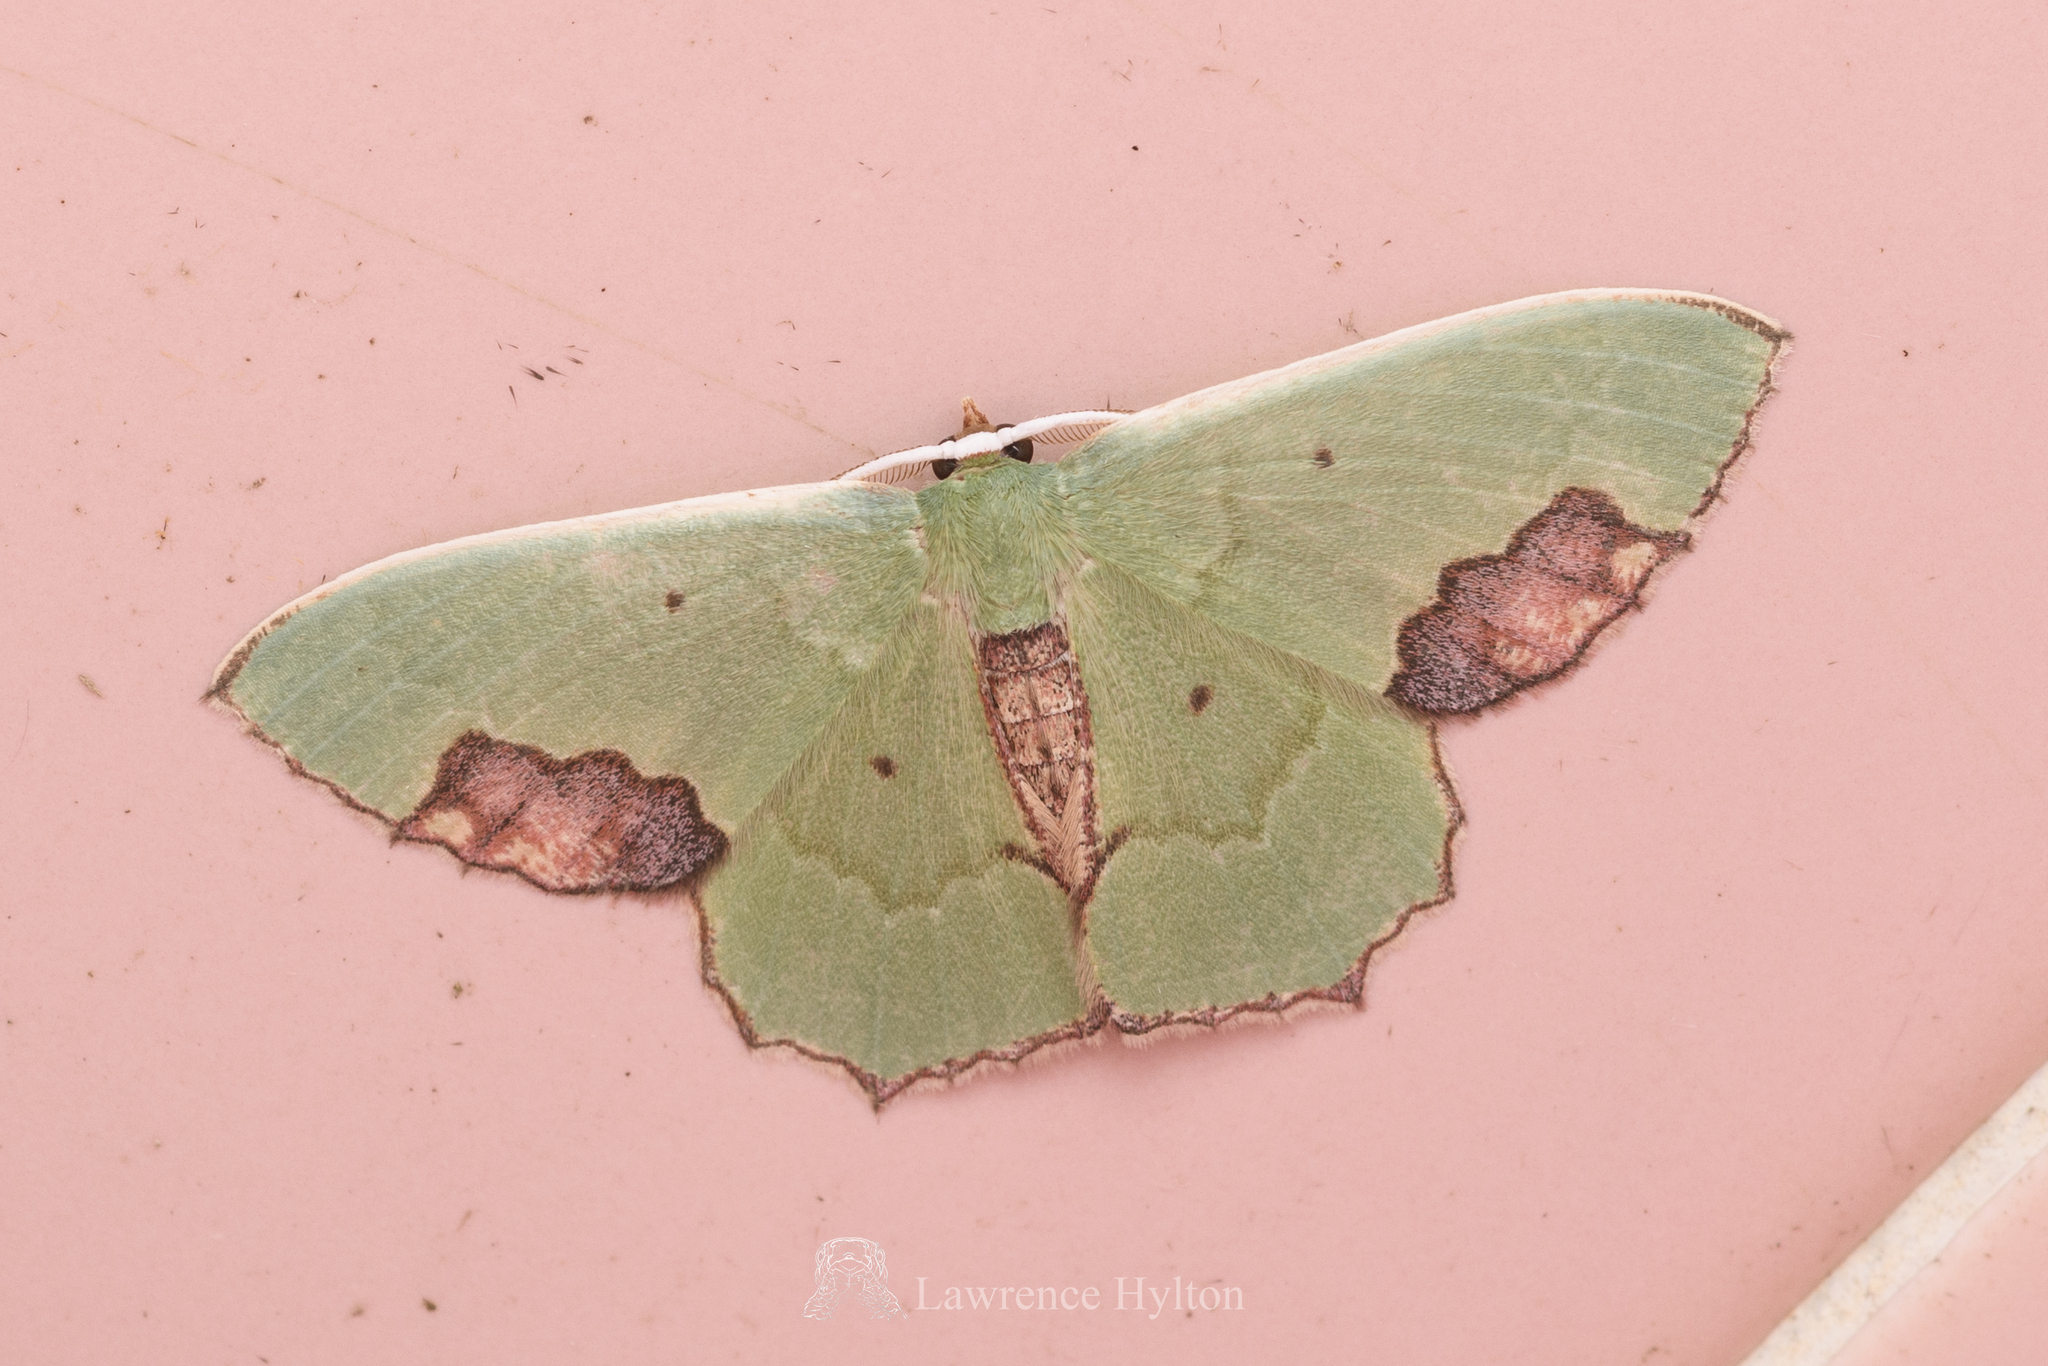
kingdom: Animalia
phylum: Arthropoda
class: Insecta
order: Lepidoptera
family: Geometridae
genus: Rhomborista
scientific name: Rhomborista monosticta
